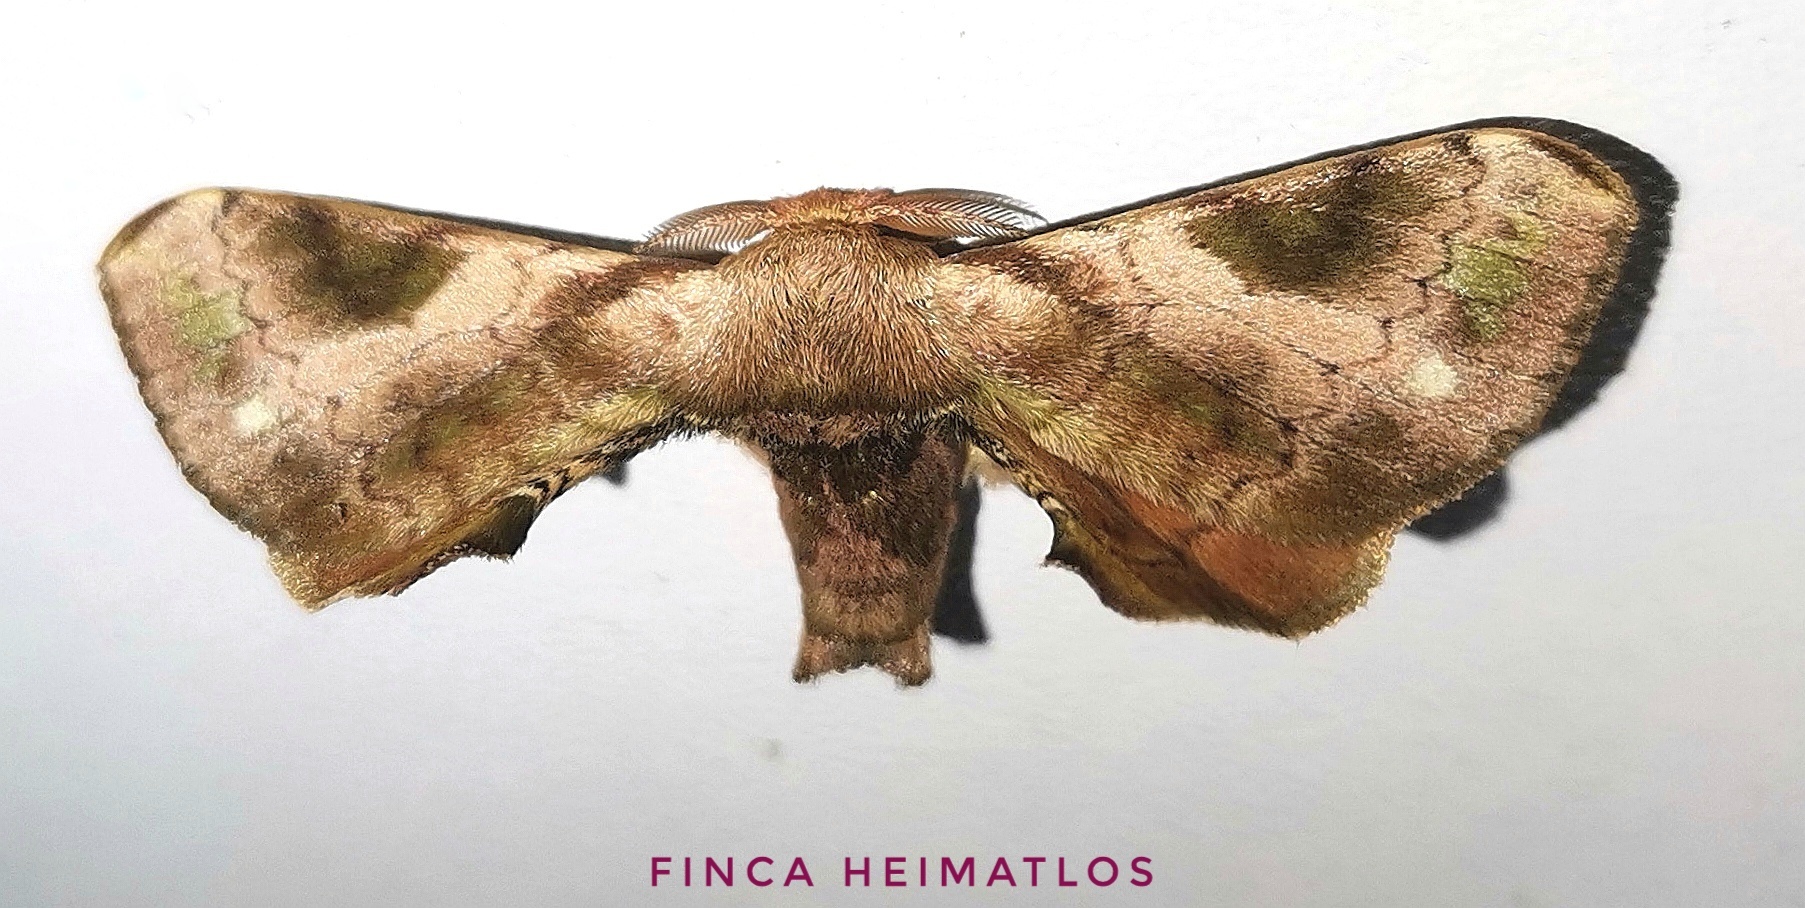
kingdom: Animalia
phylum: Arthropoda
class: Insecta
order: Lepidoptera
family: Bombycidae
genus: Epia
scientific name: Epia vulnerata
